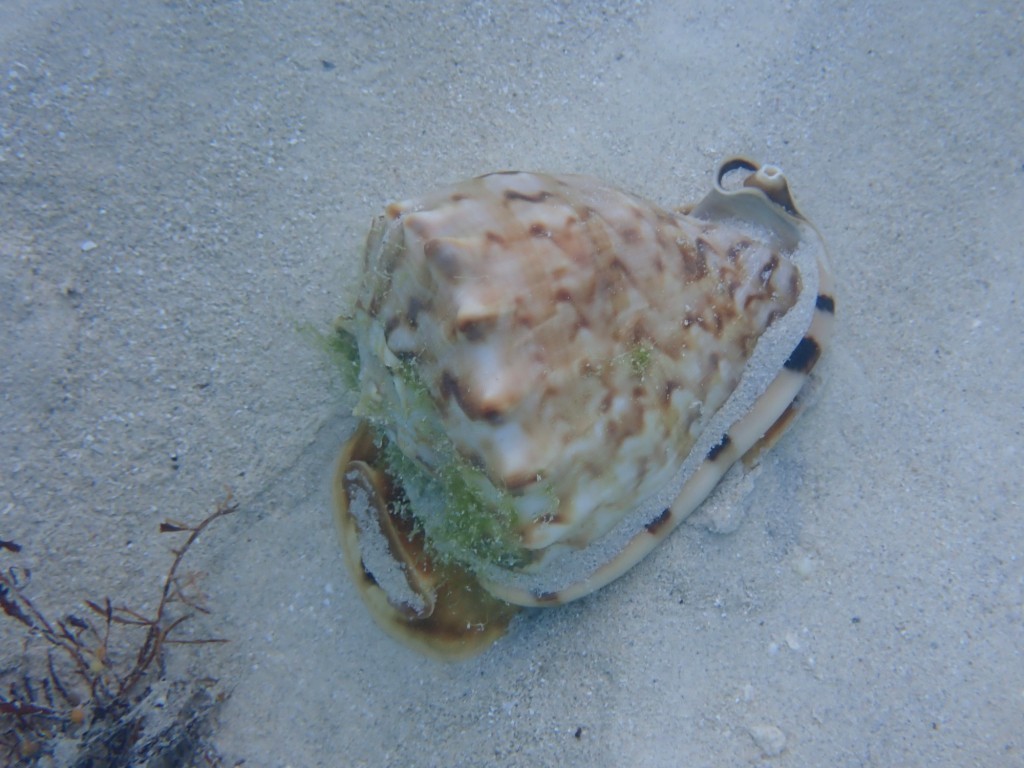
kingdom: Animalia
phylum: Mollusca
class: Gastropoda
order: Littorinimorpha
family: Cassidae
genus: Cassis
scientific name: Cassis tuberosa
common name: Caribbean helmet
